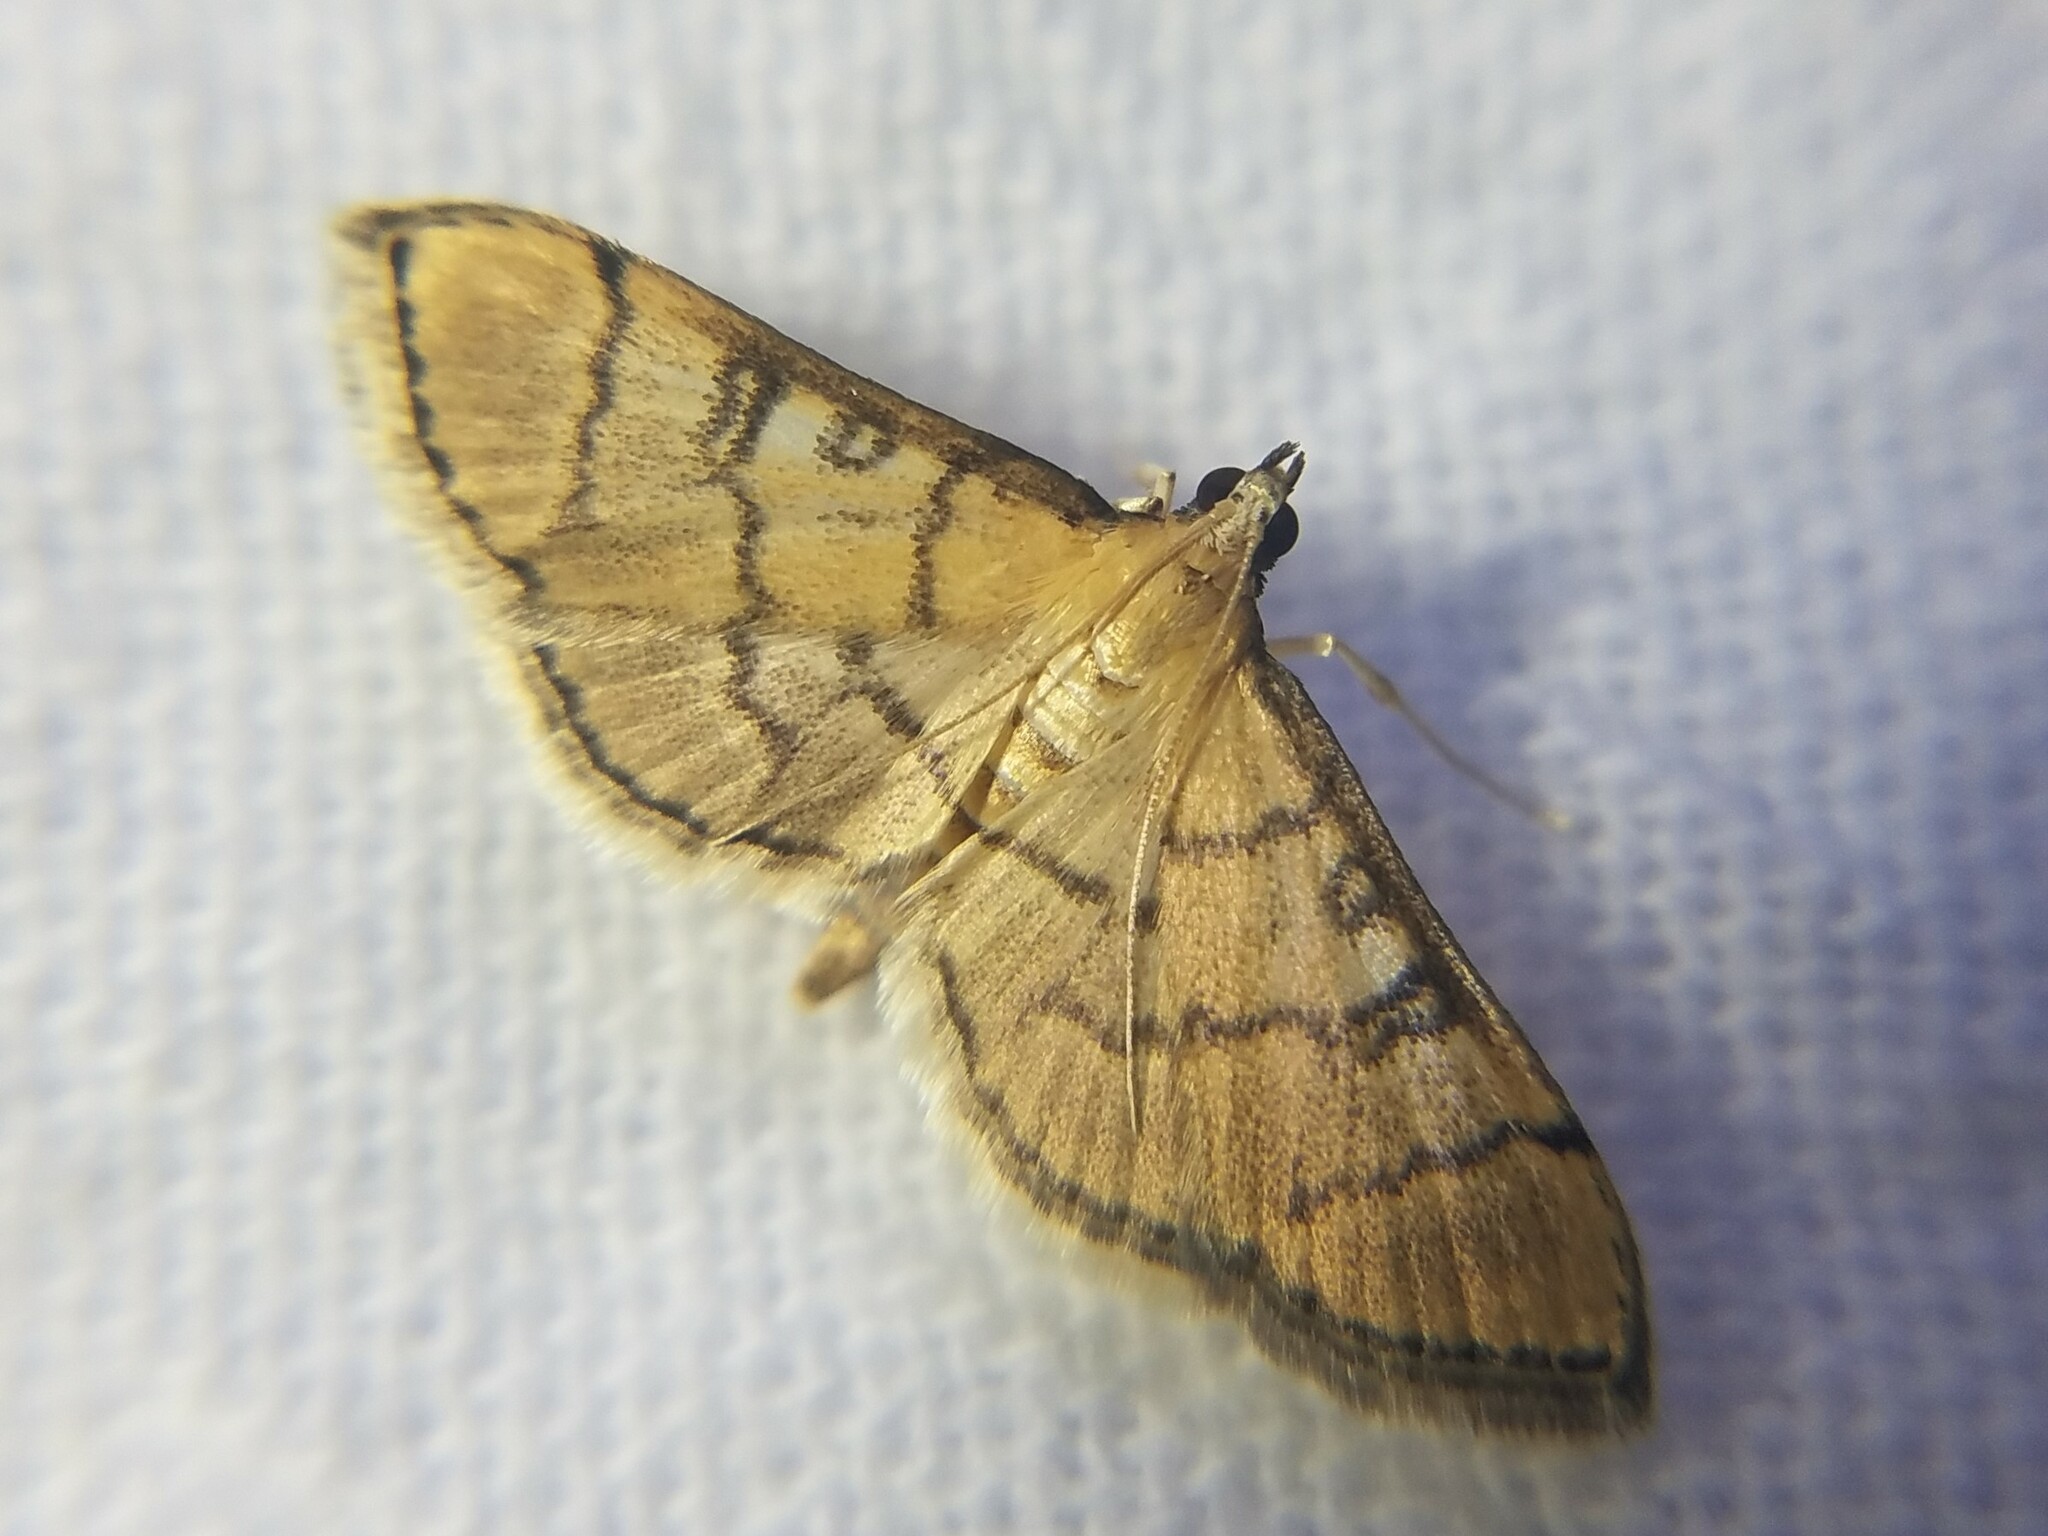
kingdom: Animalia
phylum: Arthropoda
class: Insecta
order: Lepidoptera
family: Crambidae
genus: Lamprosema
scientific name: Lamprosema Blepharomastix ranalis
